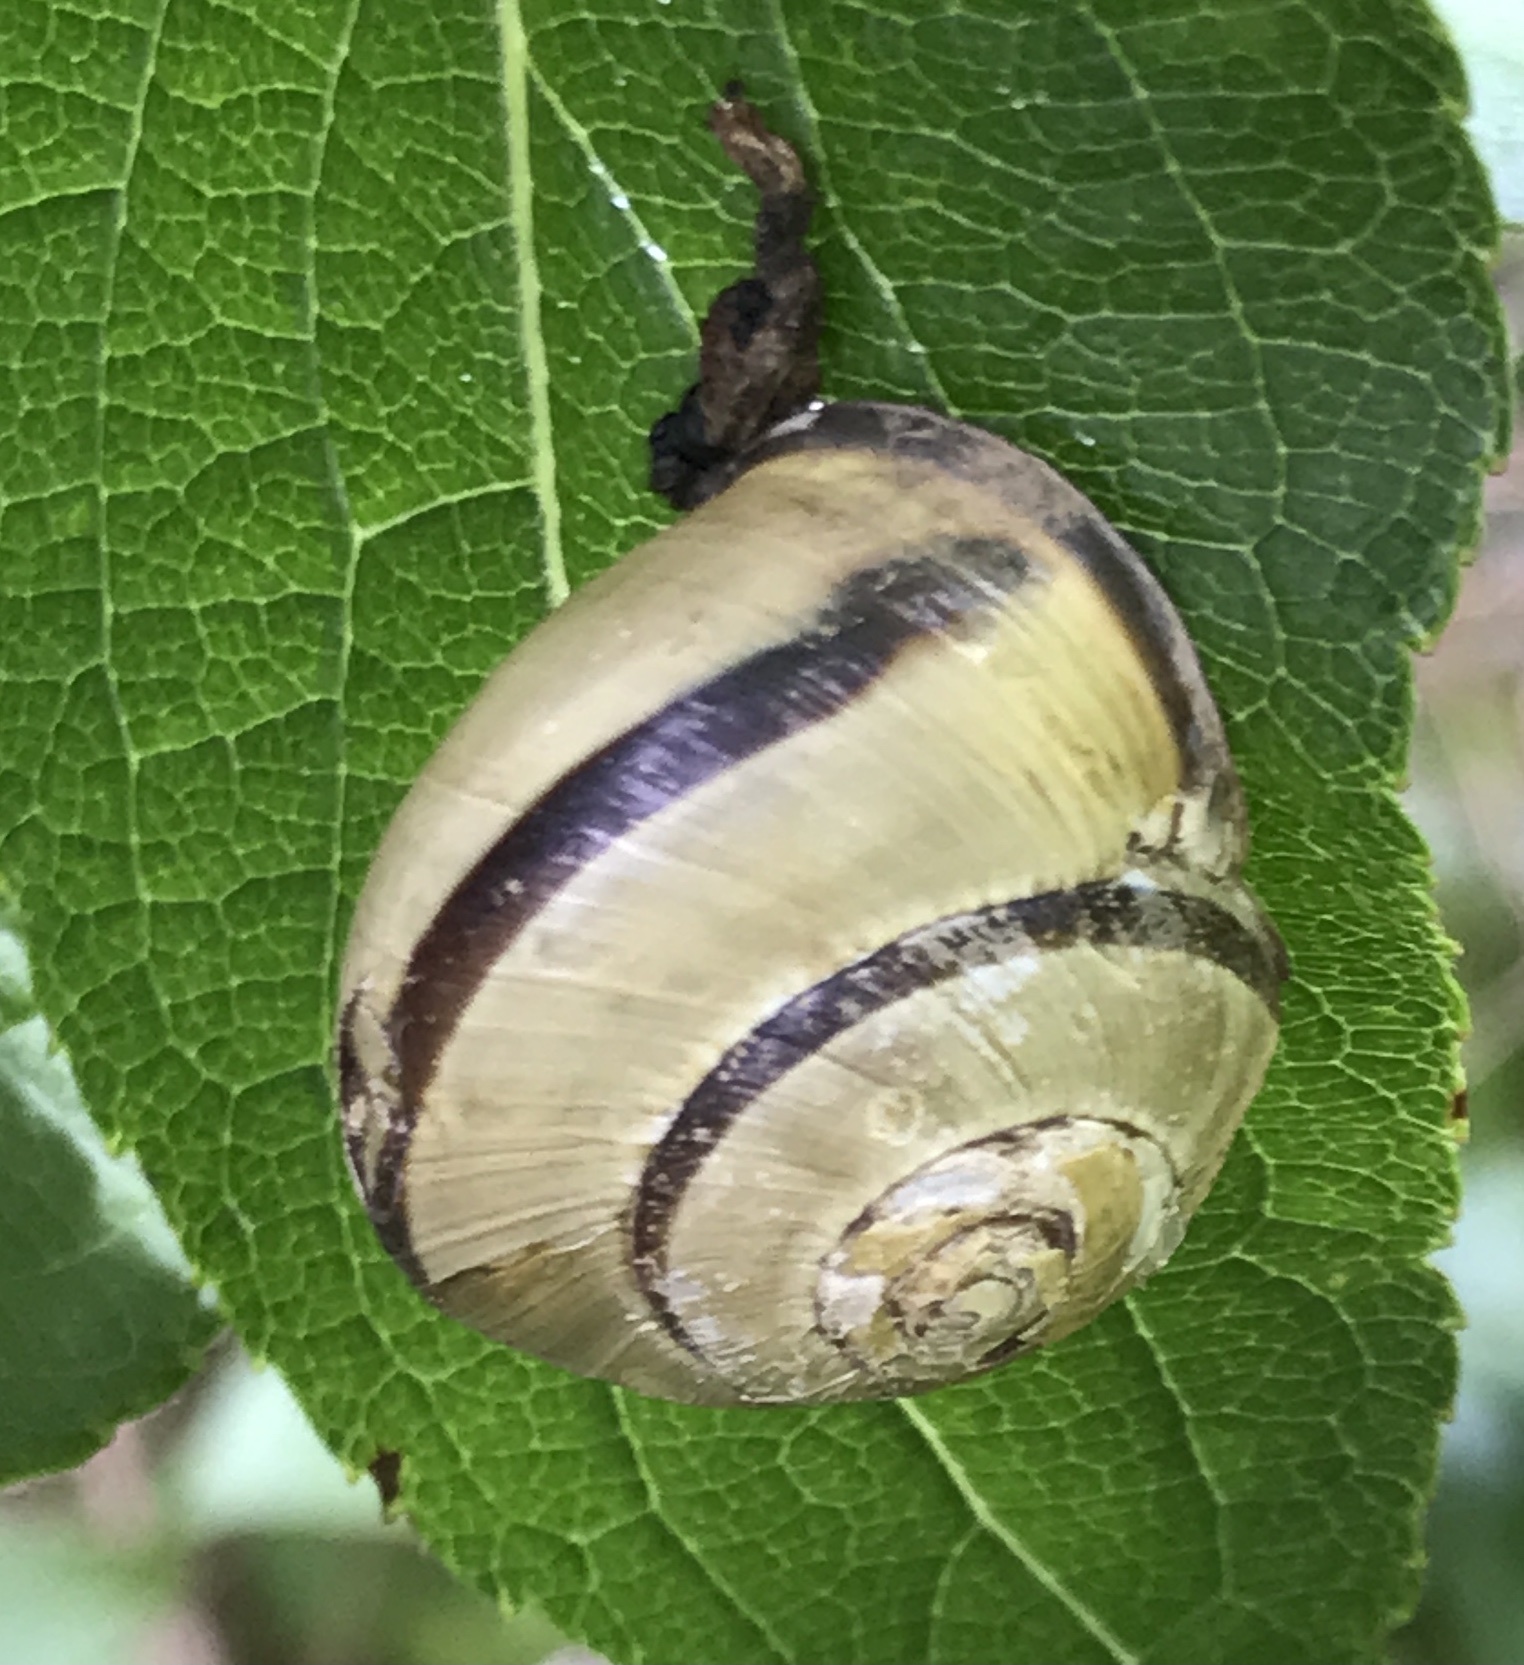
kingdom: Animalia
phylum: Mollusca
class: Gastropoda
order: Stylommatophora
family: Helicidae
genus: Cepaea
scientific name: Cepaea nemoralis
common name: Grovesnail
